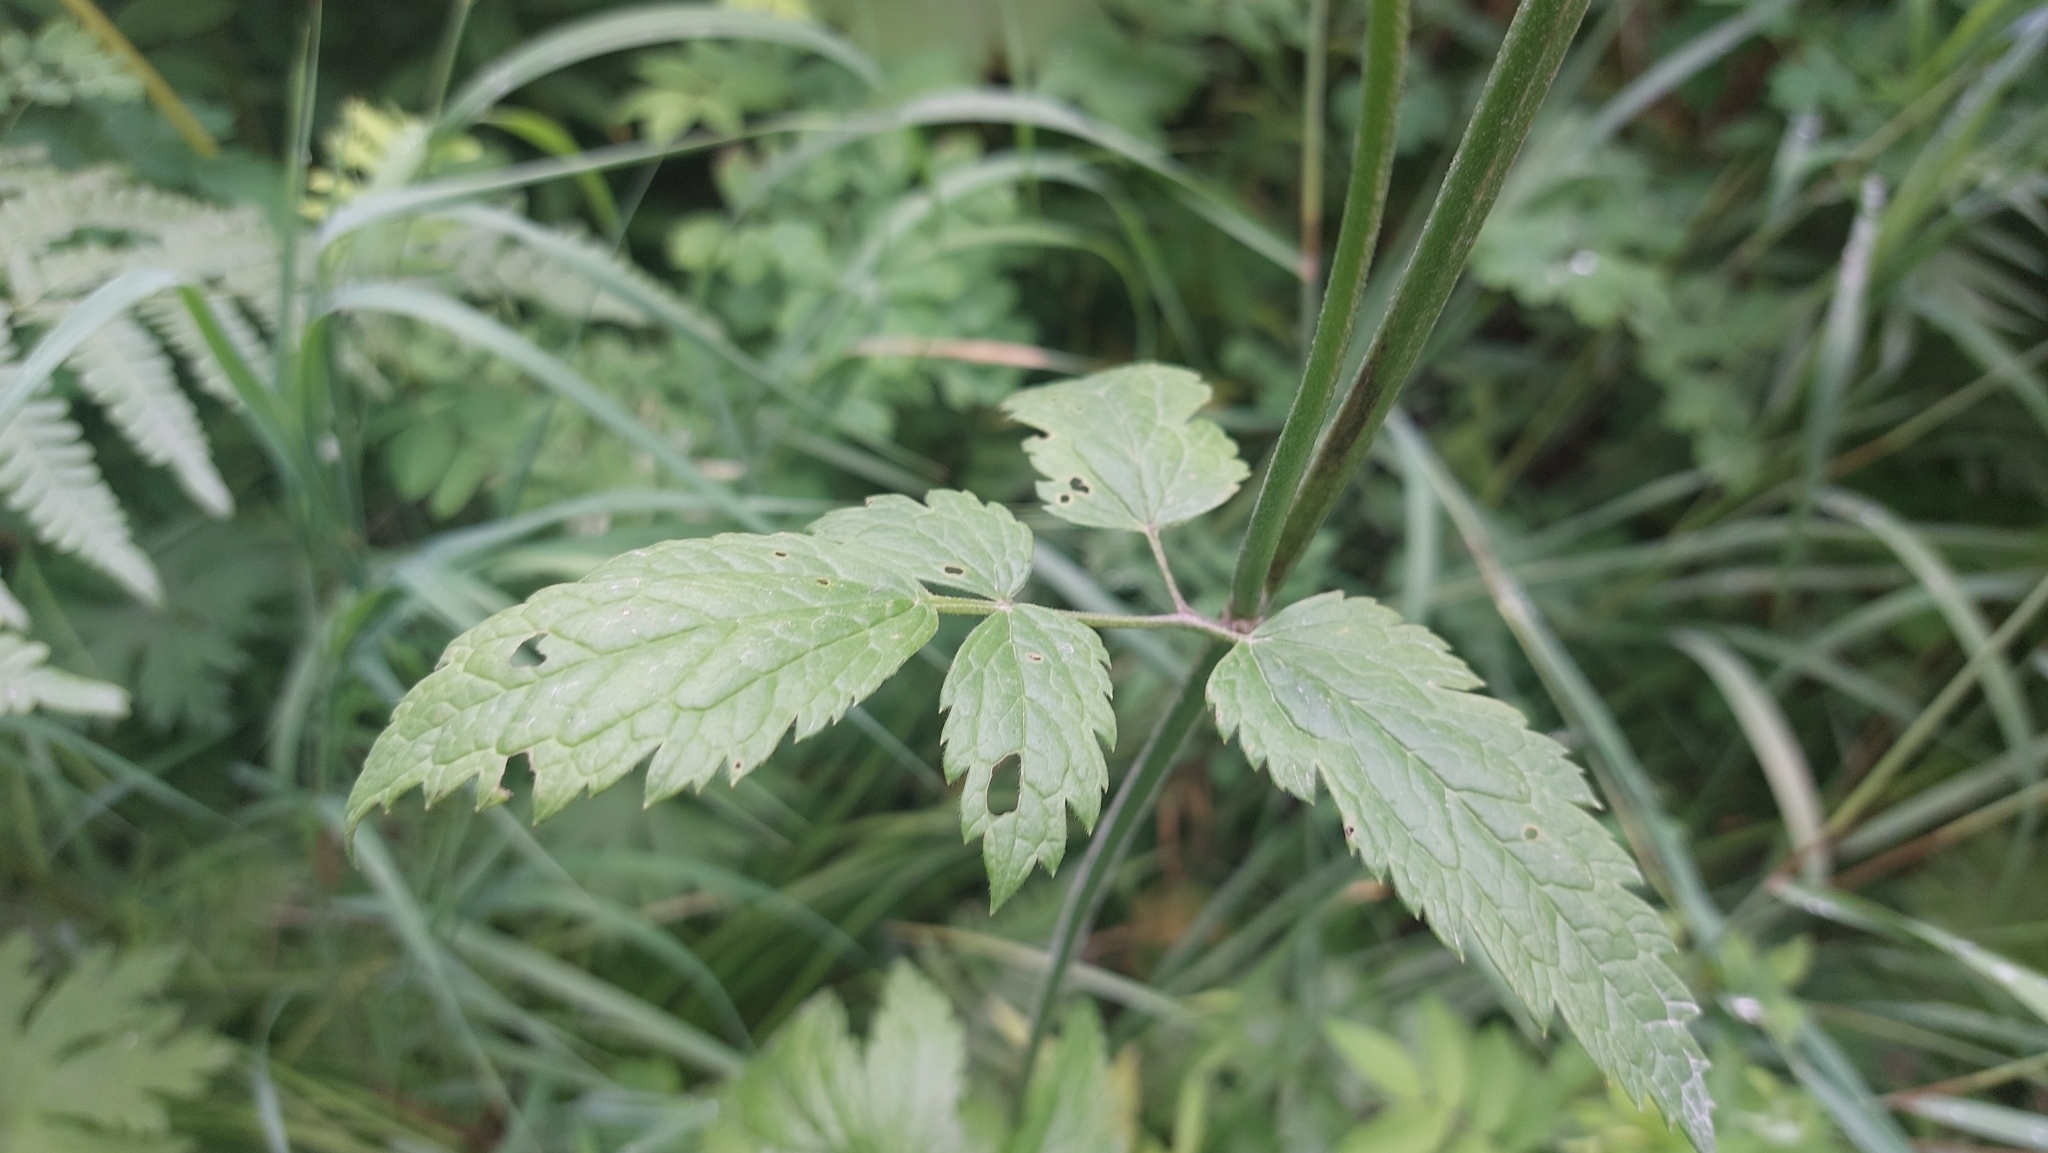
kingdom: Plantae
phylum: Tracheophyta
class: Magnoliopsida
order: Ranunculales
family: Ranunculaceae
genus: Actaea
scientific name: Actaea simplex
